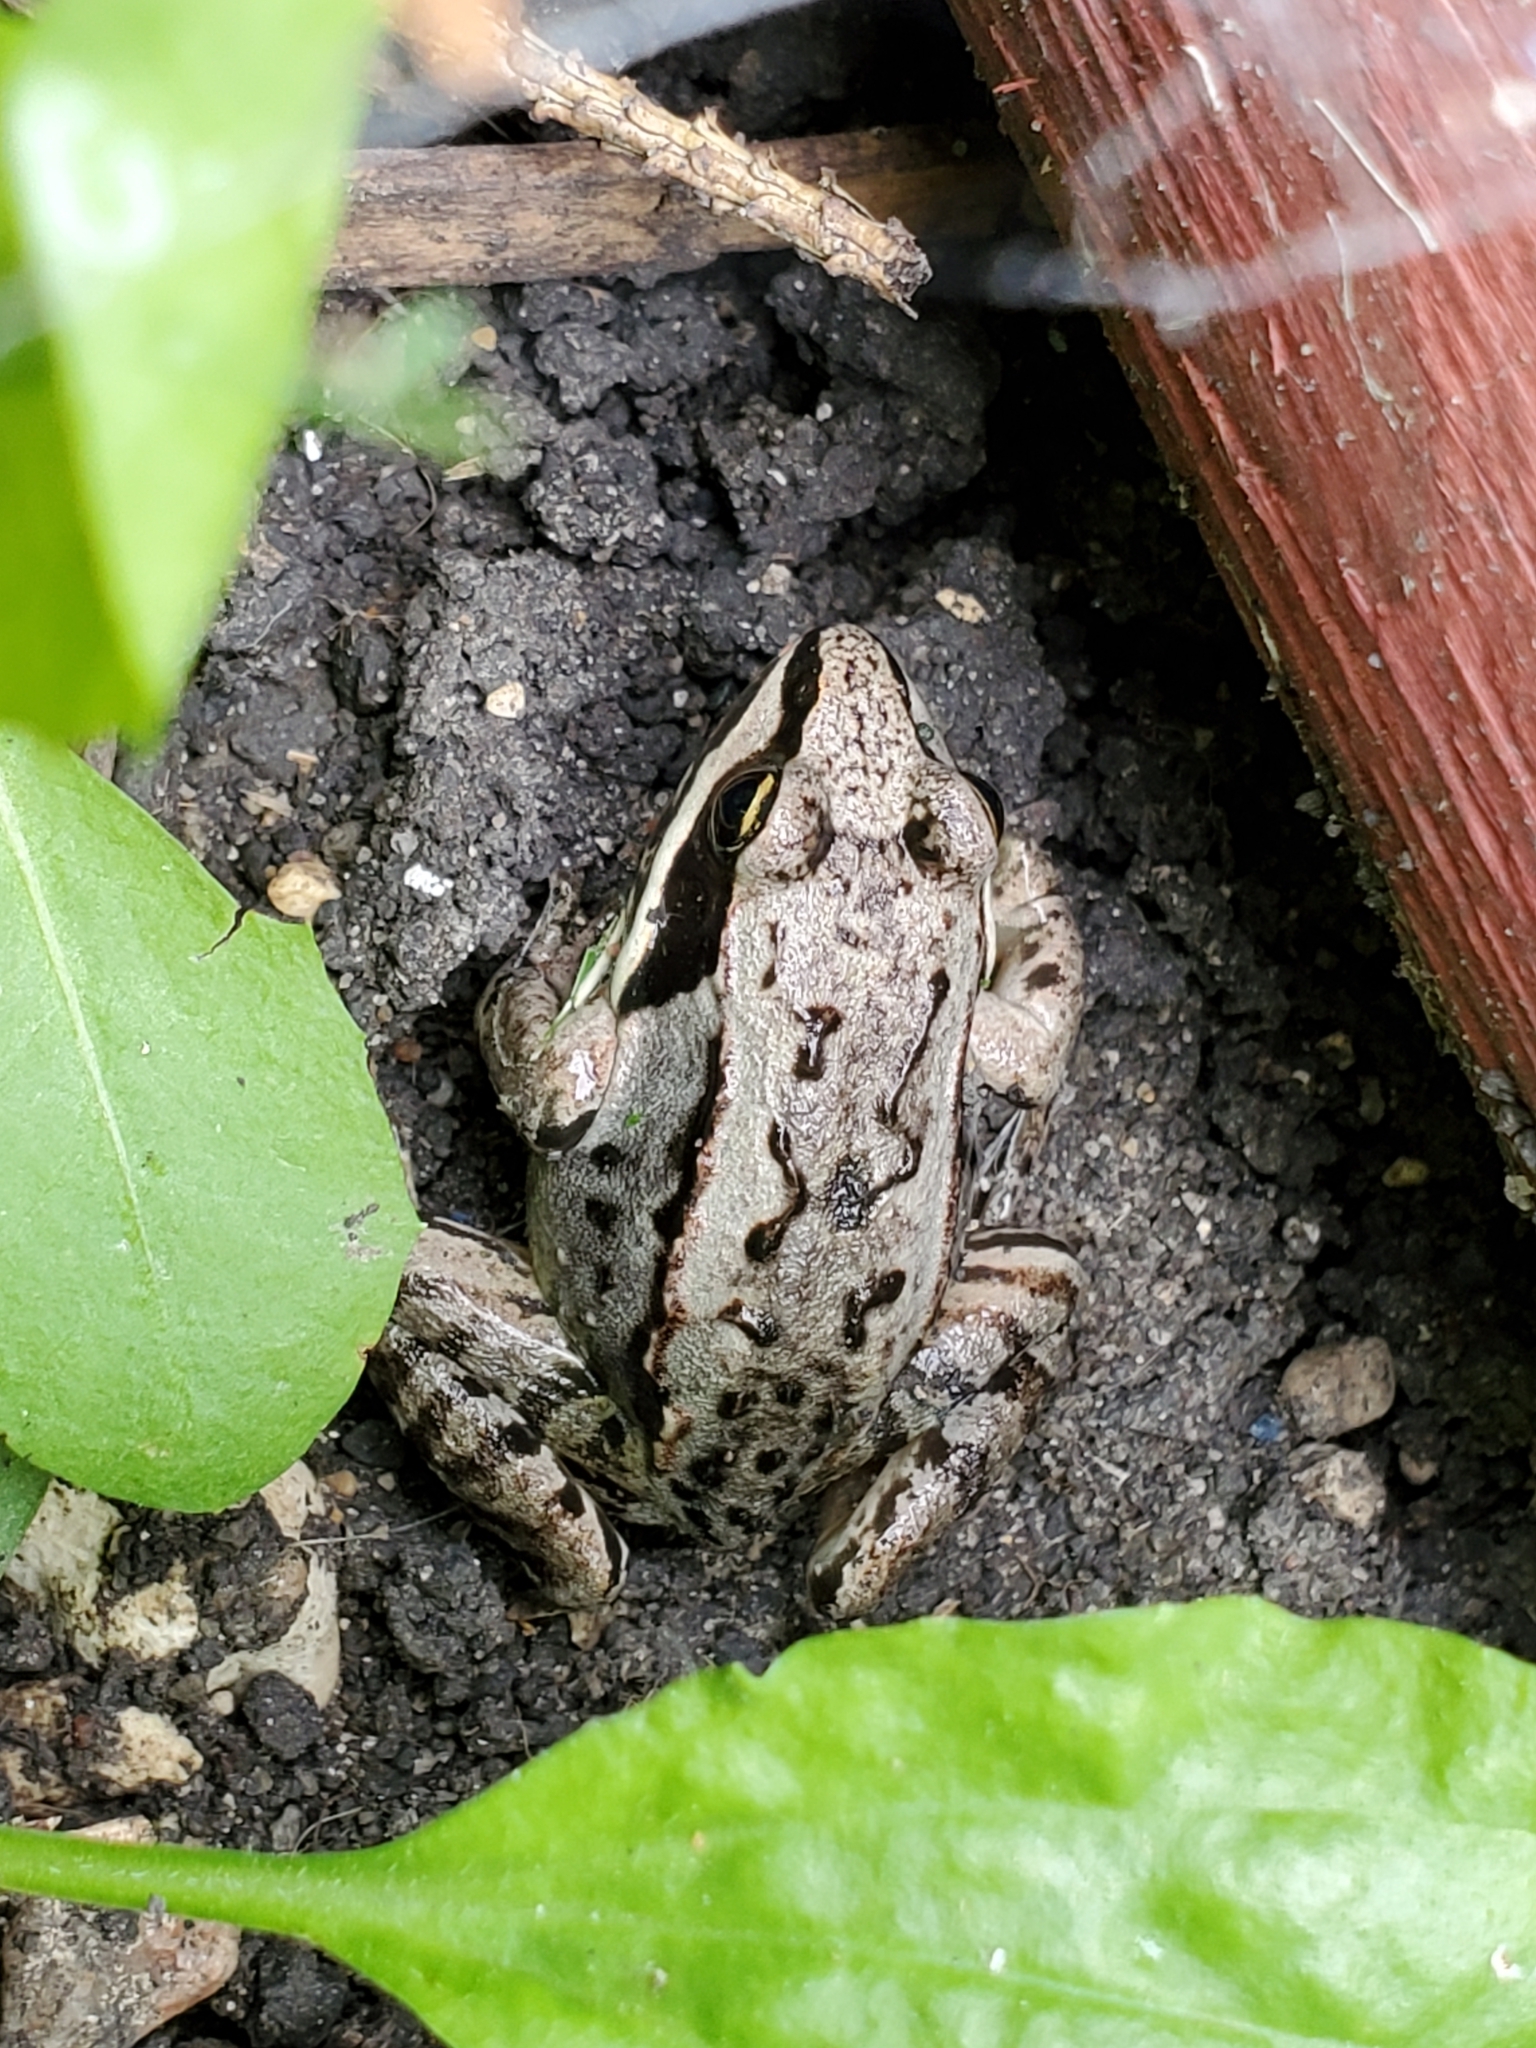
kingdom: Animalia
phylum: Chordata
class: Amphibia
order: Anura
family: Ranidae
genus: Lithobates
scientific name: Lithobates sylvaticus
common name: Wood frog
